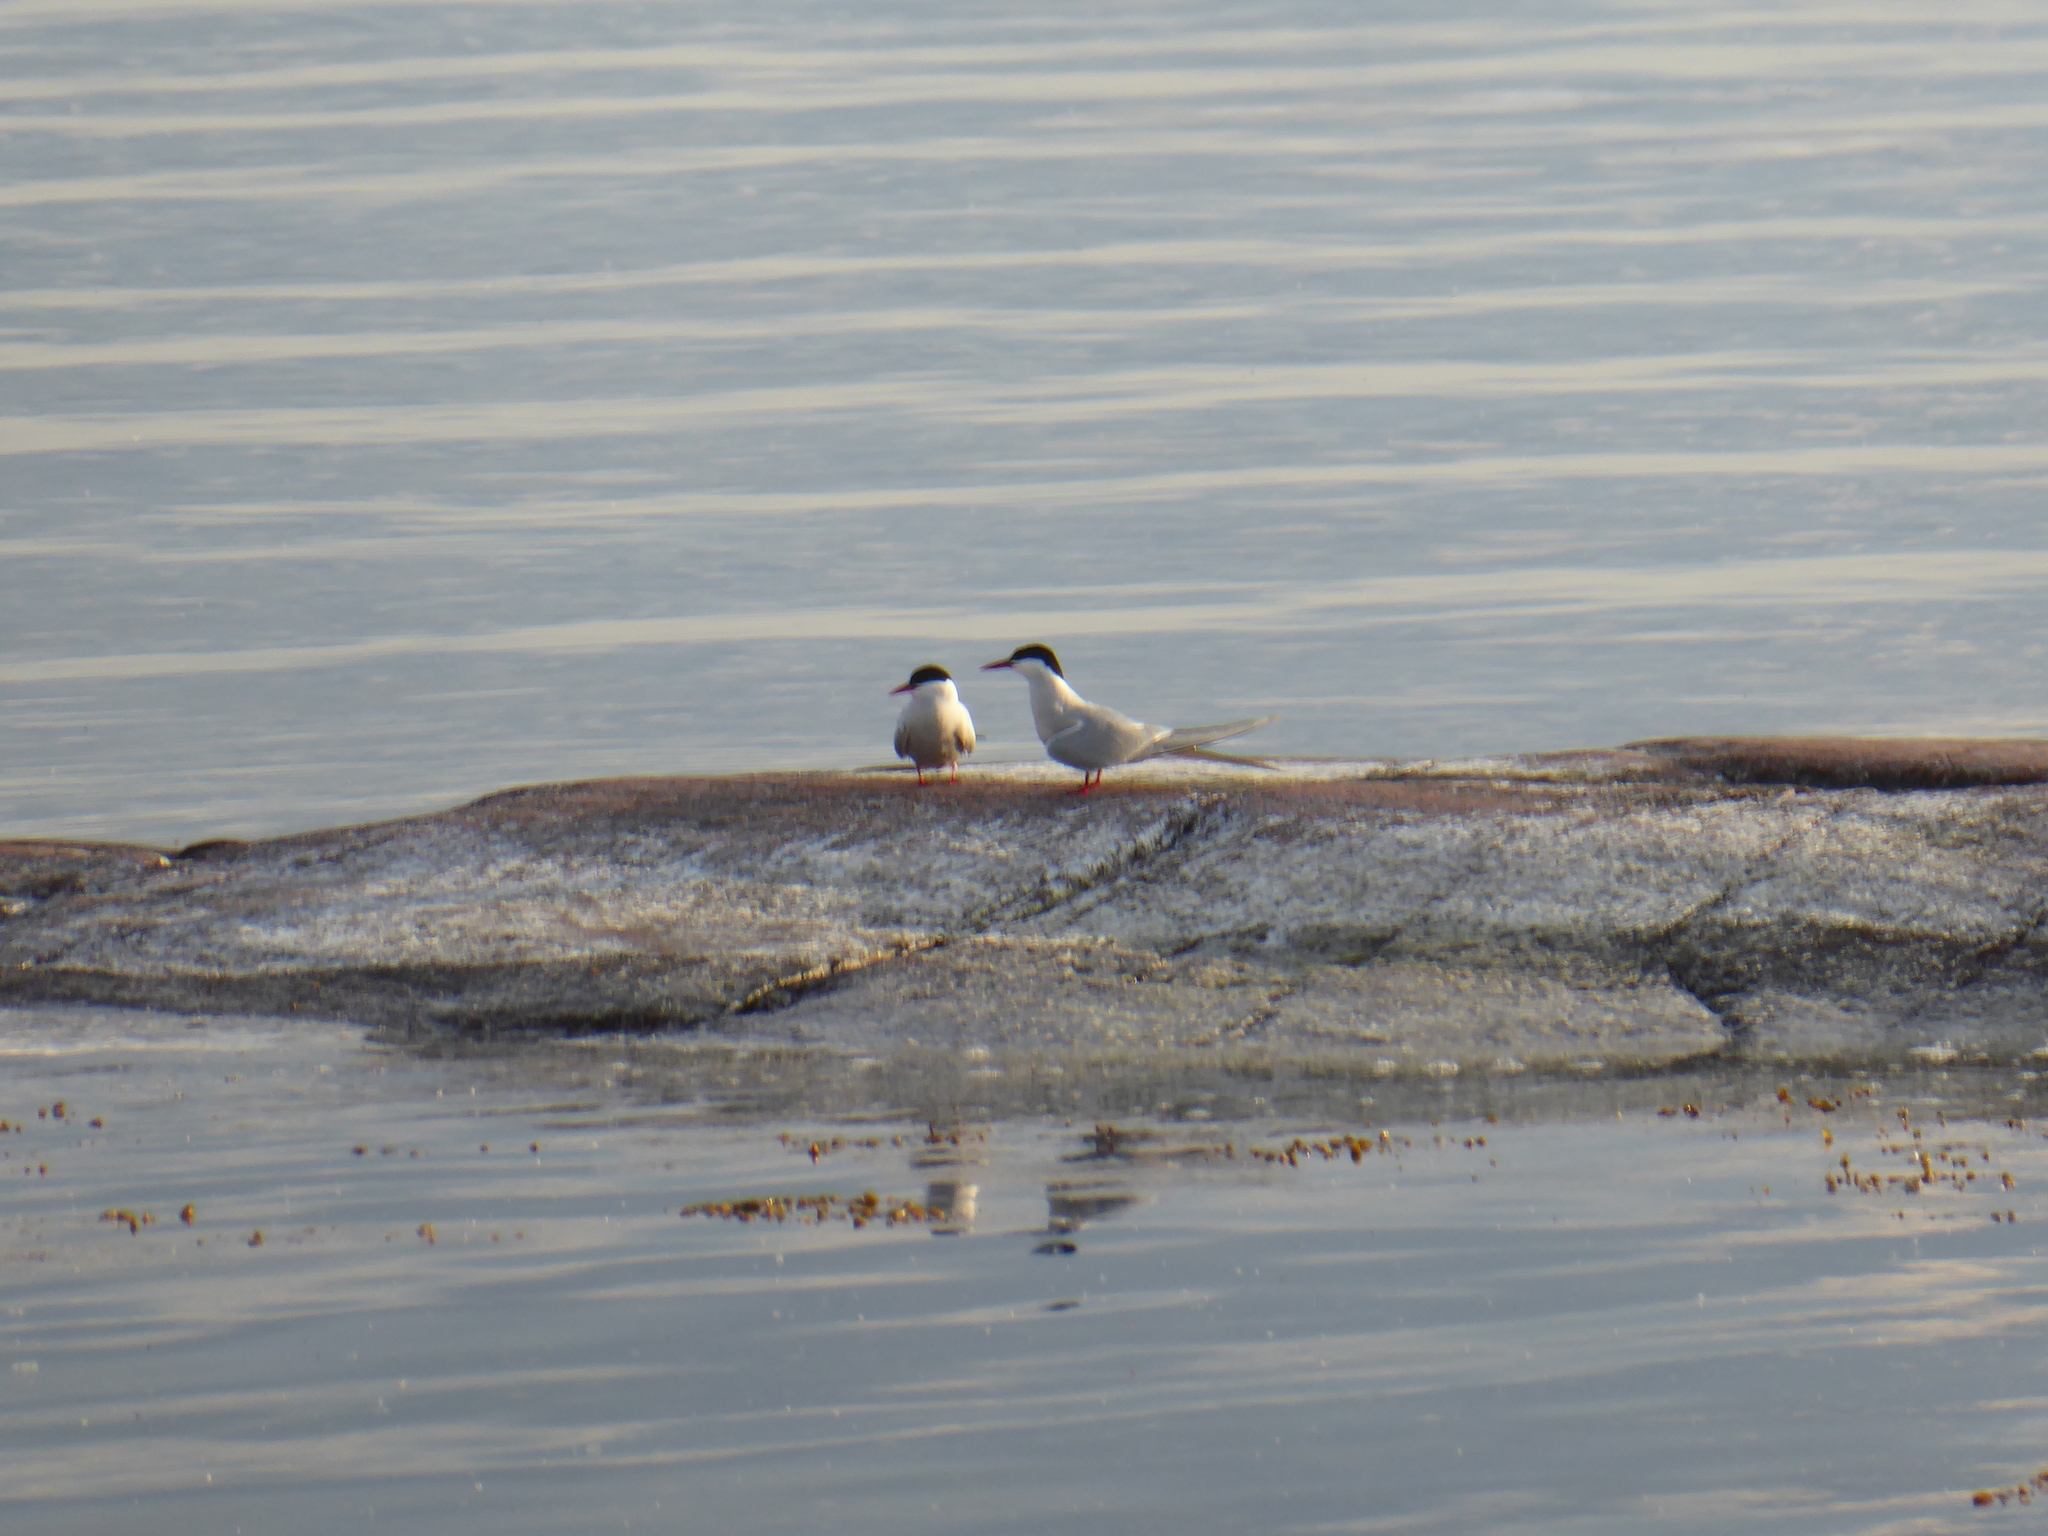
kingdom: Animalia
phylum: Chordata
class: Aves
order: Charadriiformes
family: Laridae
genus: Sterna
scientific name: Sterna paradisaea
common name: Arctic tern
